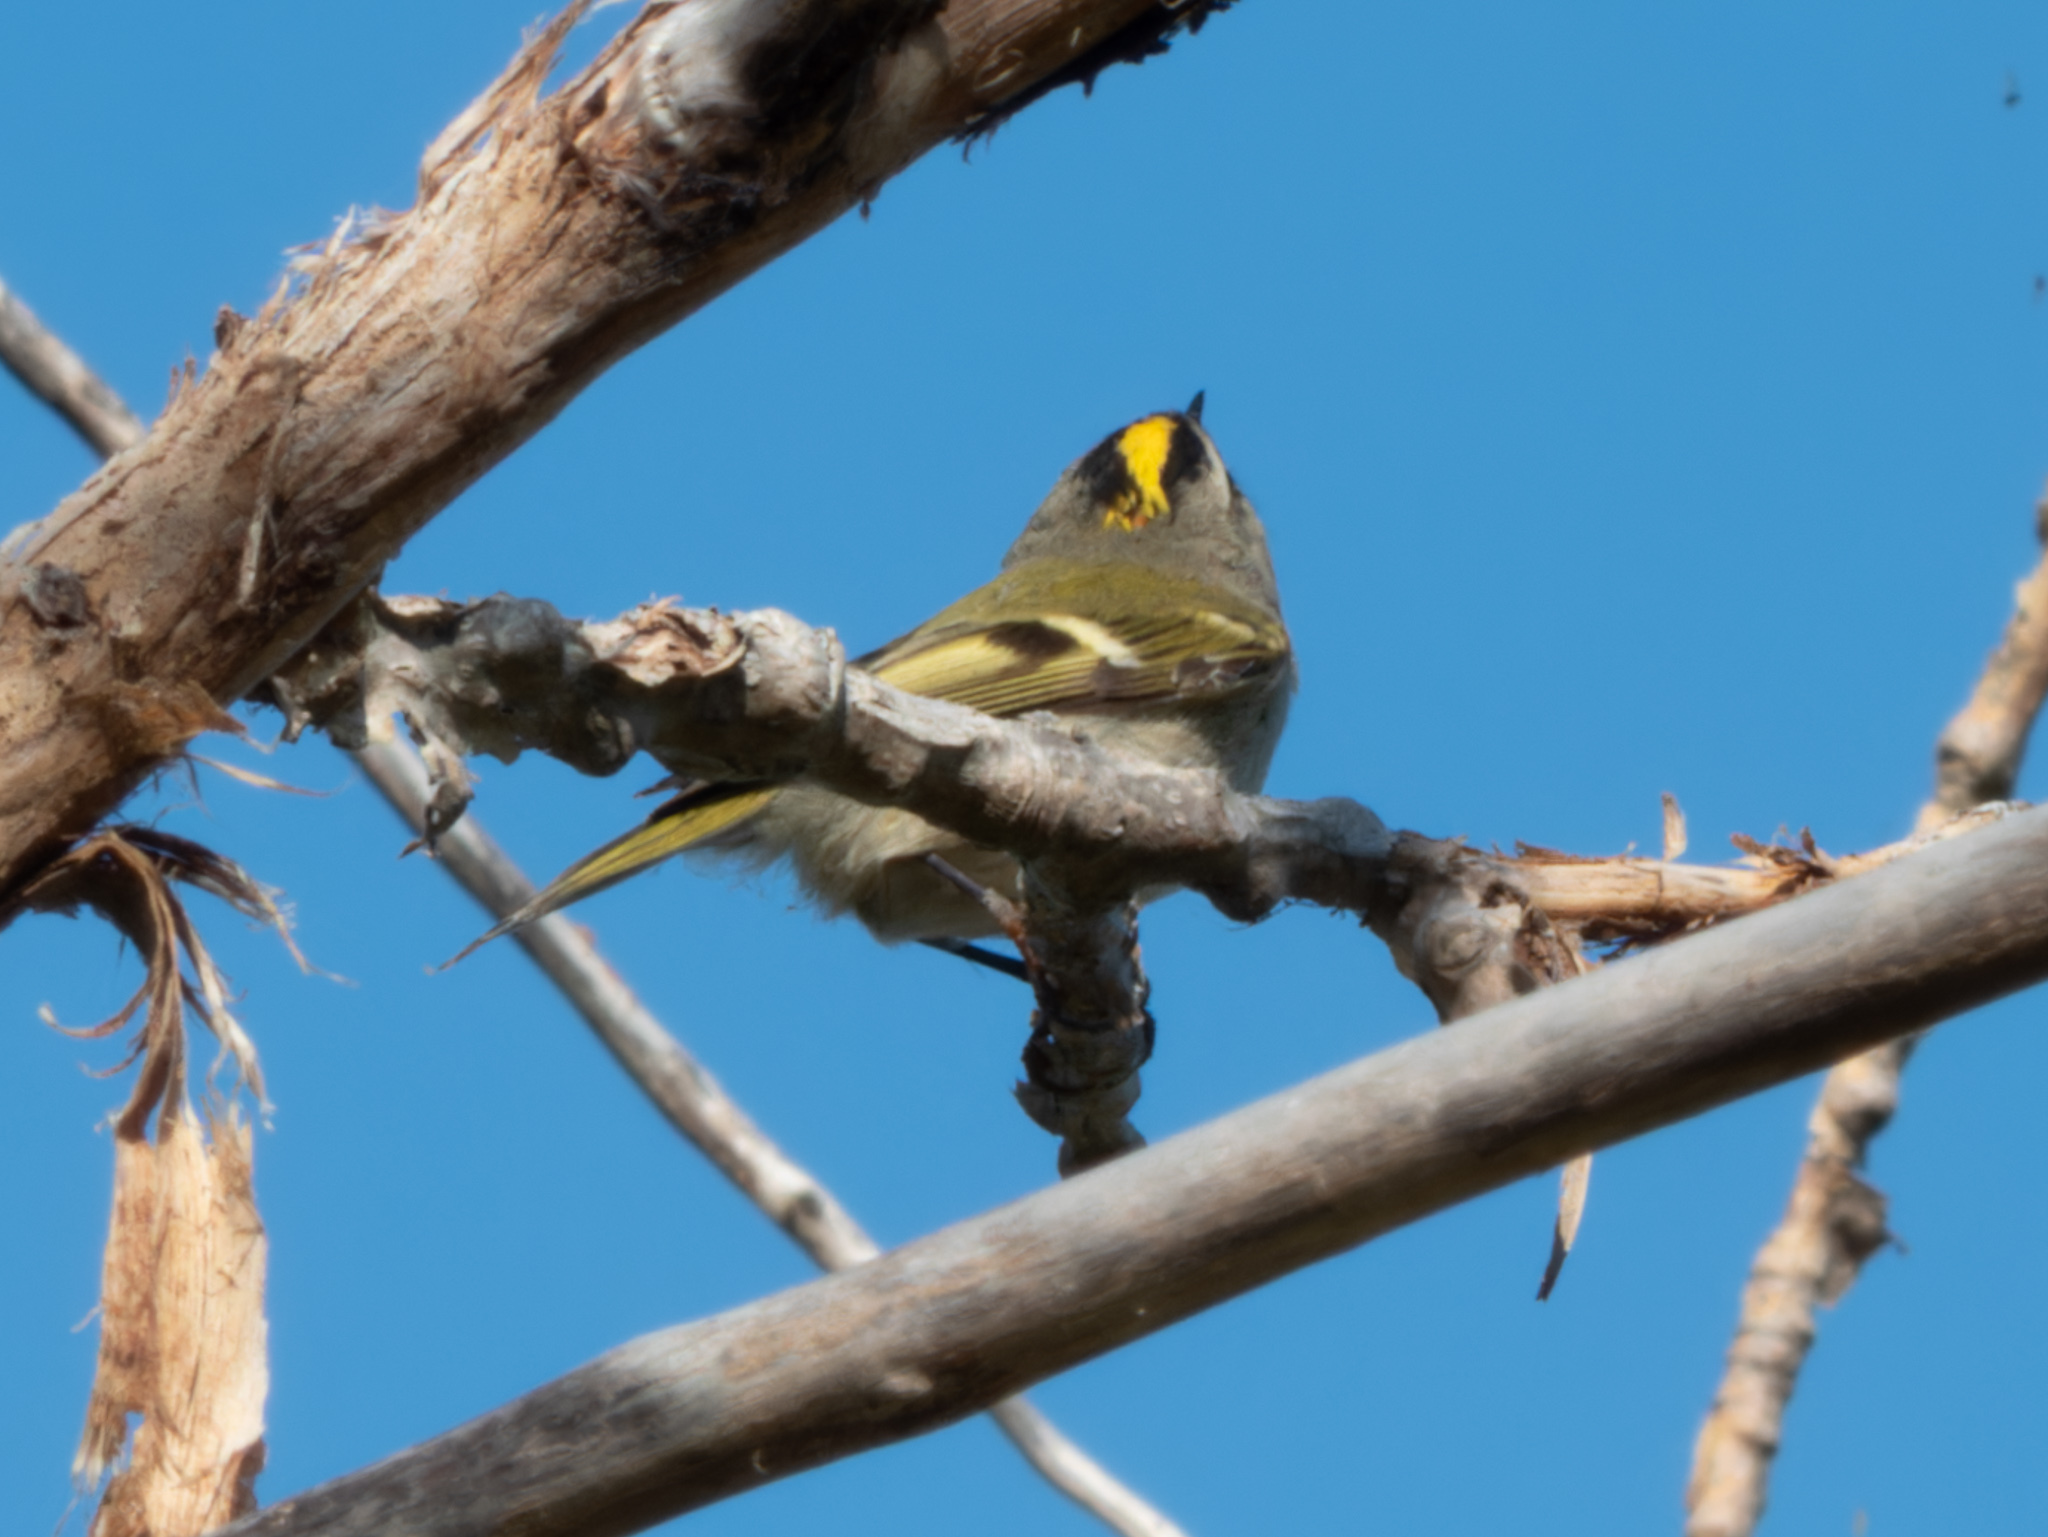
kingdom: Animalia
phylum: Chordata
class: Aves
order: Passeriformes
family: Regulidae
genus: Regulus
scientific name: Regulus satrapa
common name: Golden-crowned kinglet
